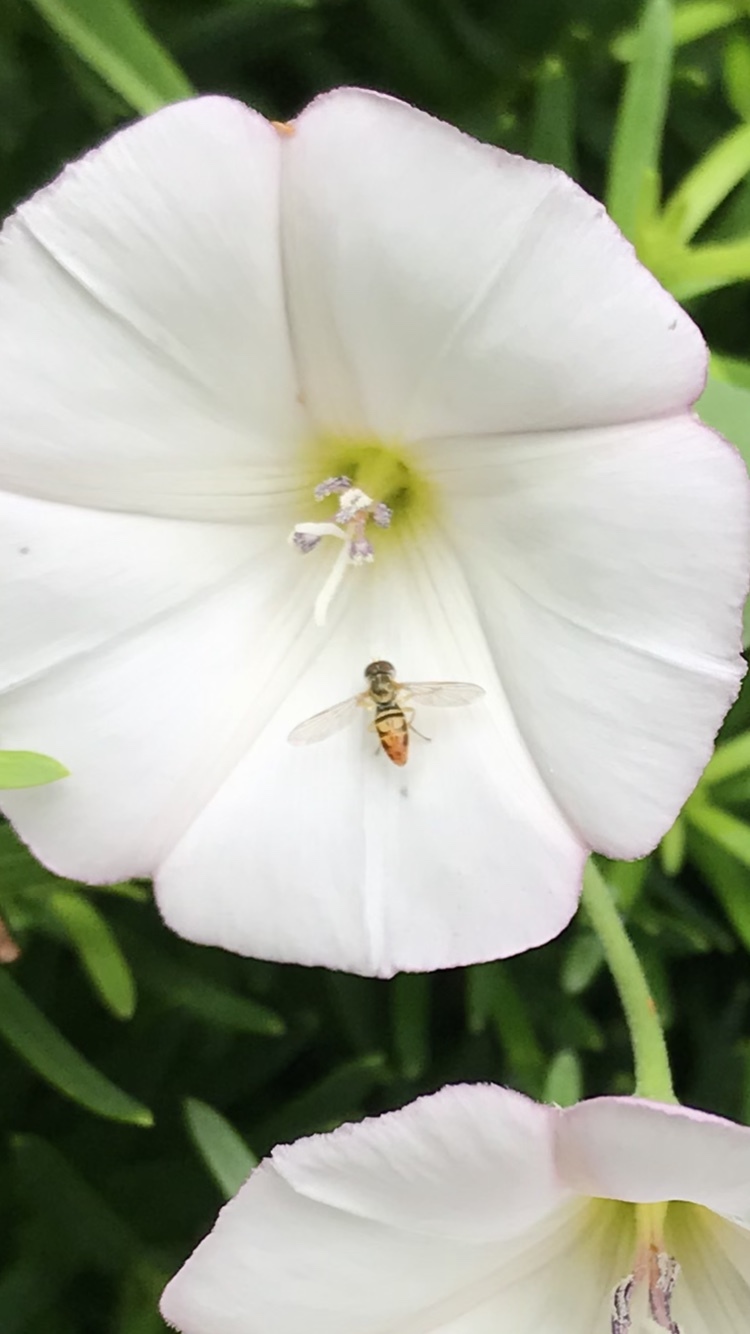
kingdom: Animalia
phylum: Arthropoda
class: Insecta
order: Diptera
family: Syrphidae
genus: Toxomerus
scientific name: Toxomerus marginatus
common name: Syrphid fly
